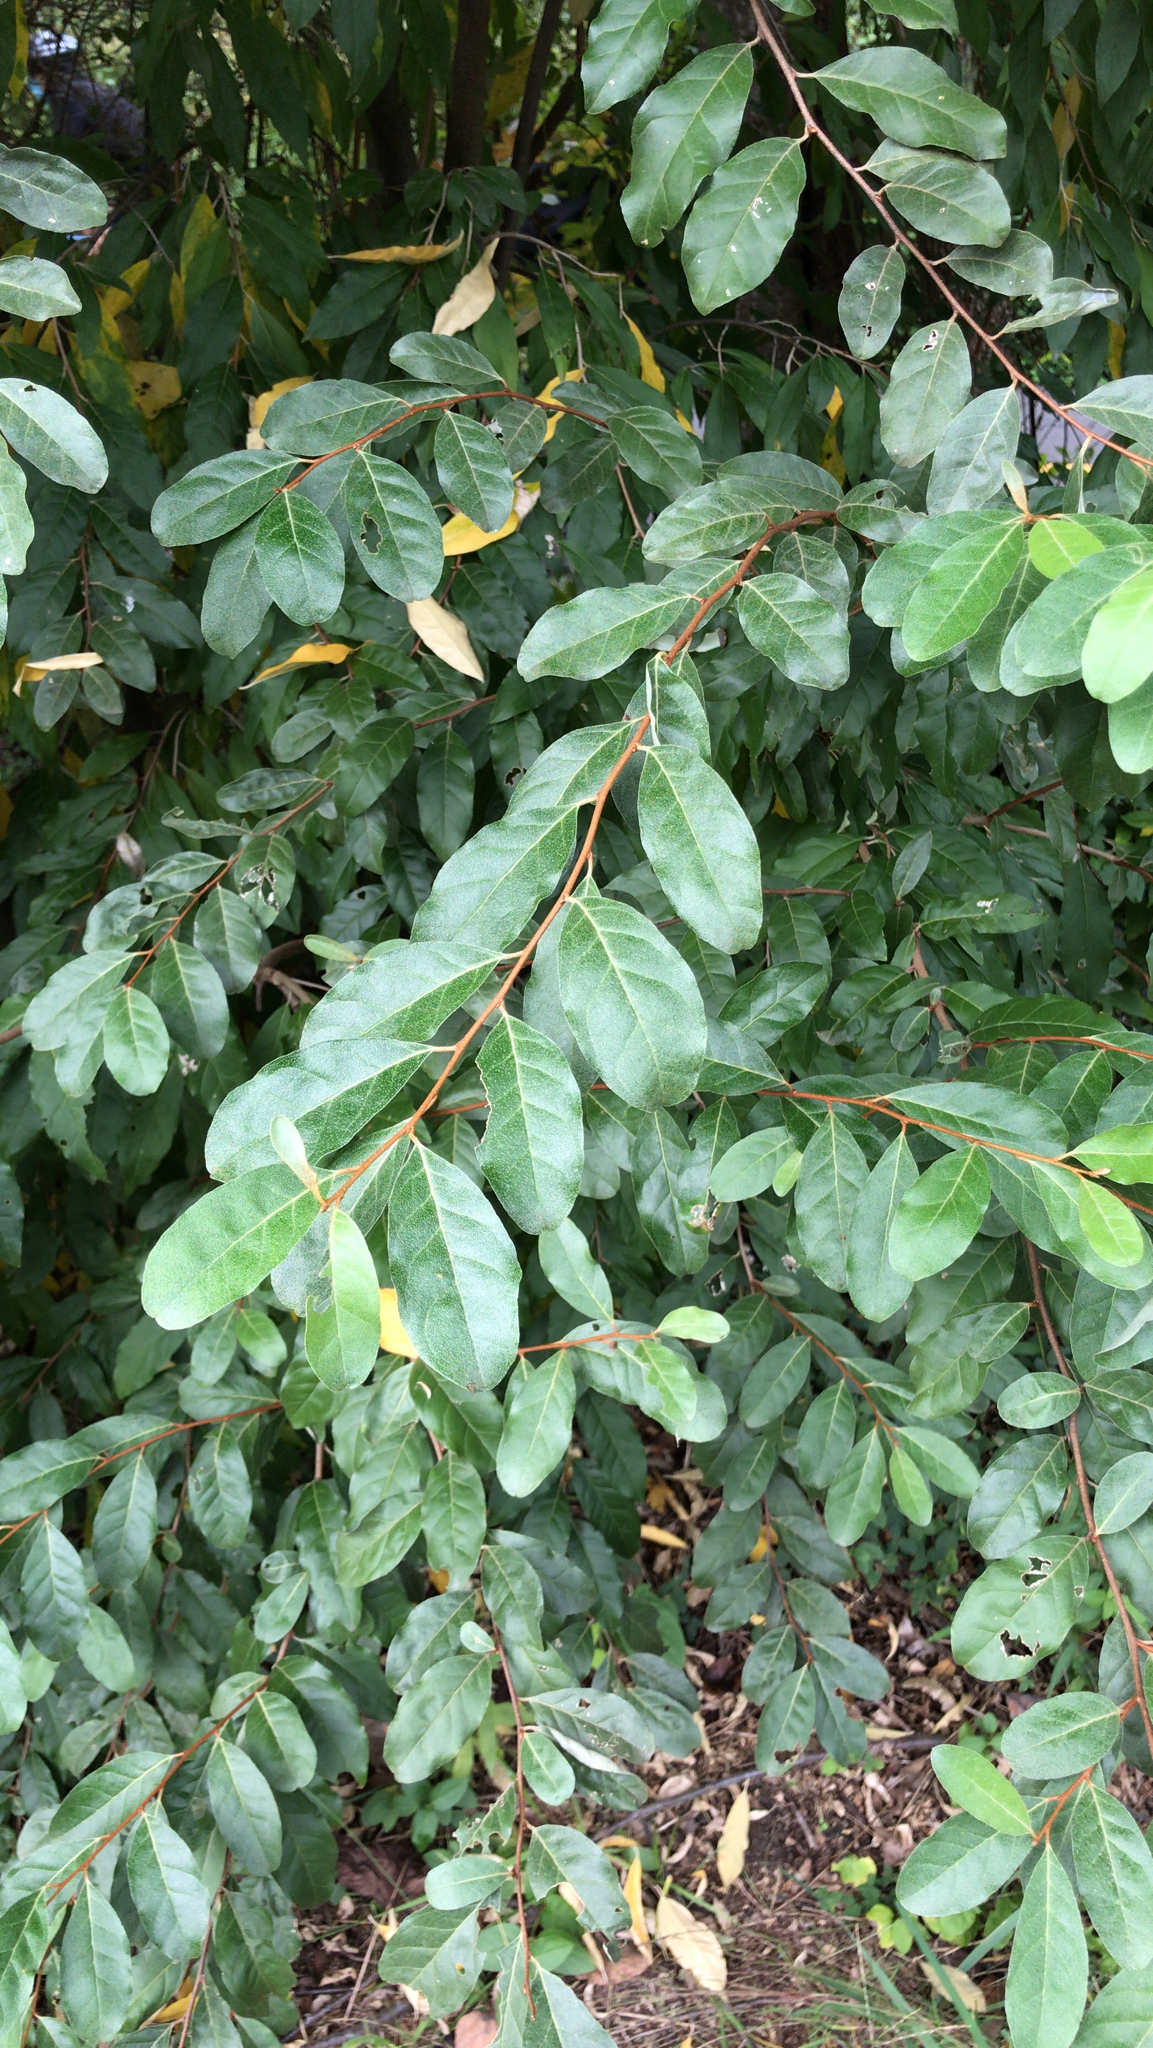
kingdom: Plantae
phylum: Tracheophyta
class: Magnoliopsida
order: Rosales
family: Elaeagnaceae
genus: Elaeagnus
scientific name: Elaeagnus umbellata
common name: Autumn olive
